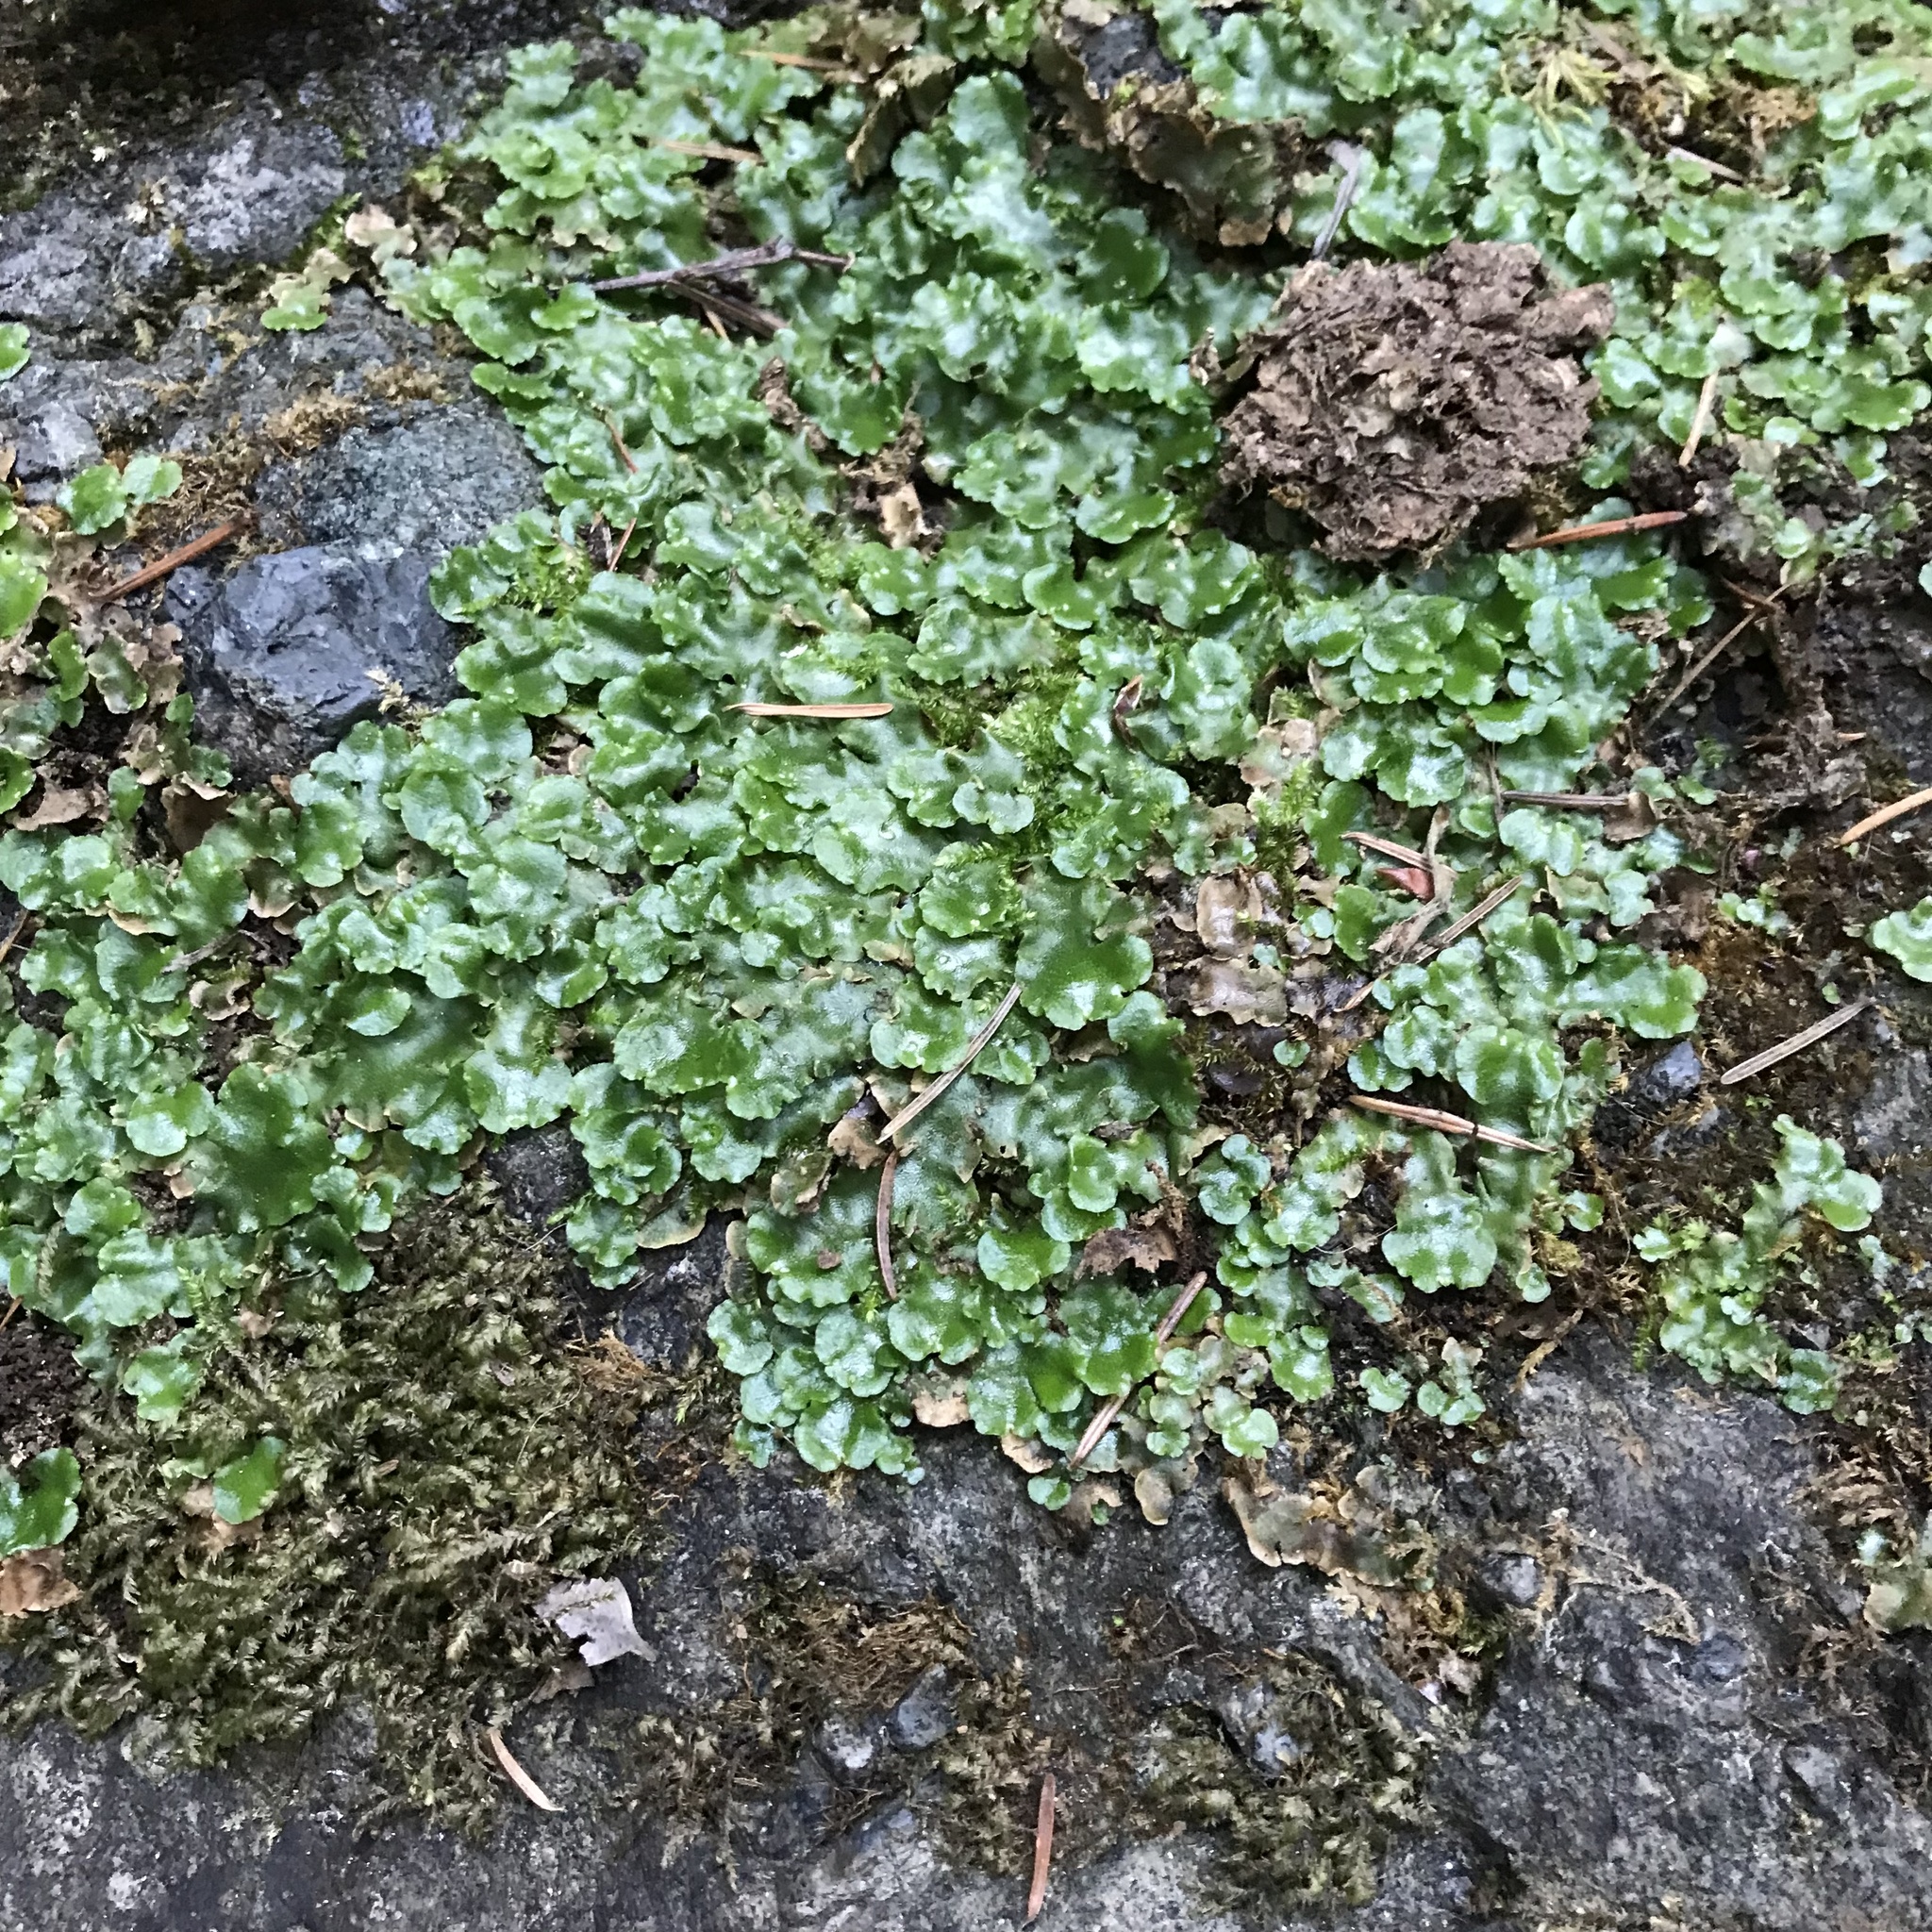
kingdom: Plantae
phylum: Marchantiophyta
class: Marchantiopsida
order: Lunulariales
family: Lunulariaceae
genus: Lunularia
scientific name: Lunularia cruciata
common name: Crescent-cup liverwort
